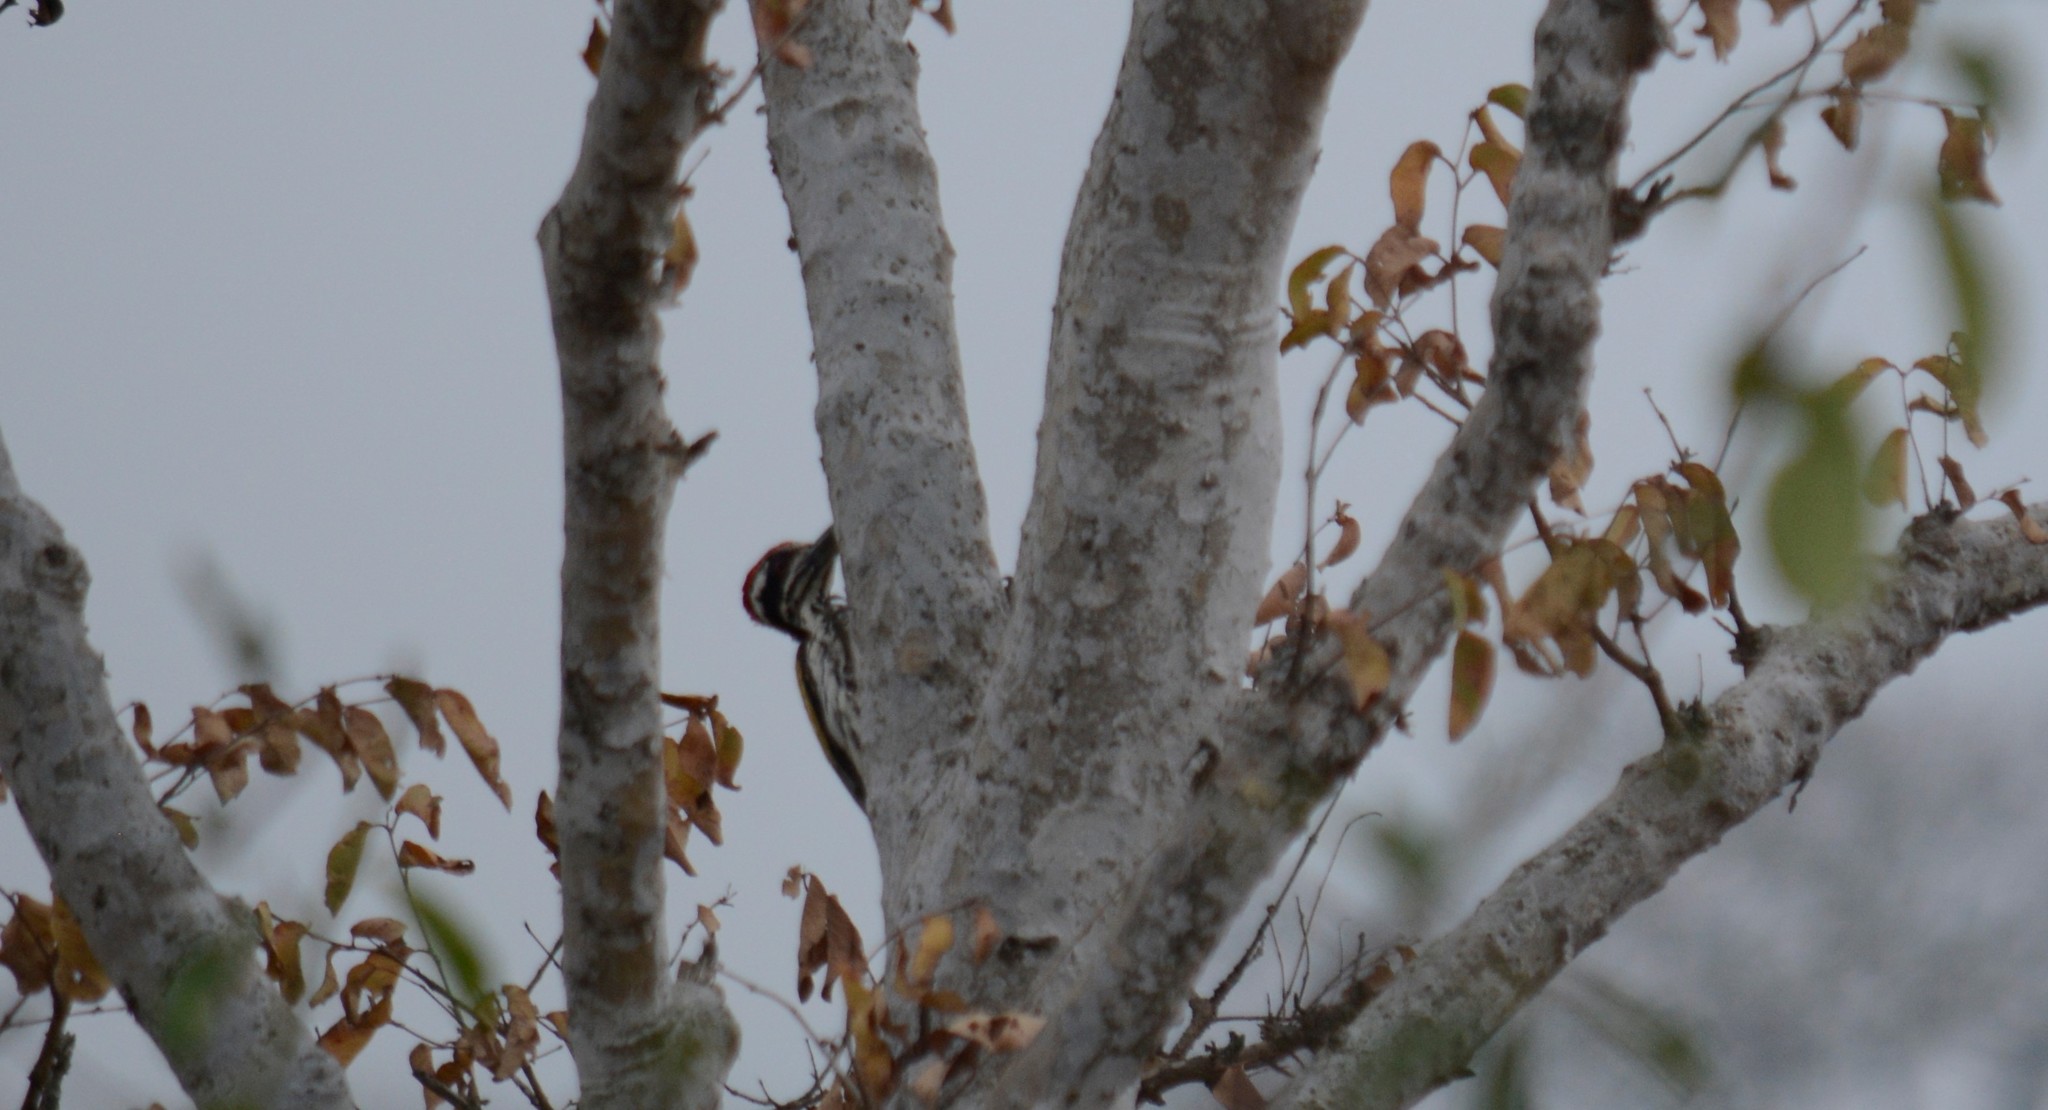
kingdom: Animalia
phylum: Chordata
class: Aves
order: Piciformes
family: Picidae
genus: Chrysocolaptes
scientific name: Chrysocolaptes festivus
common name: White-naped woodpecker
